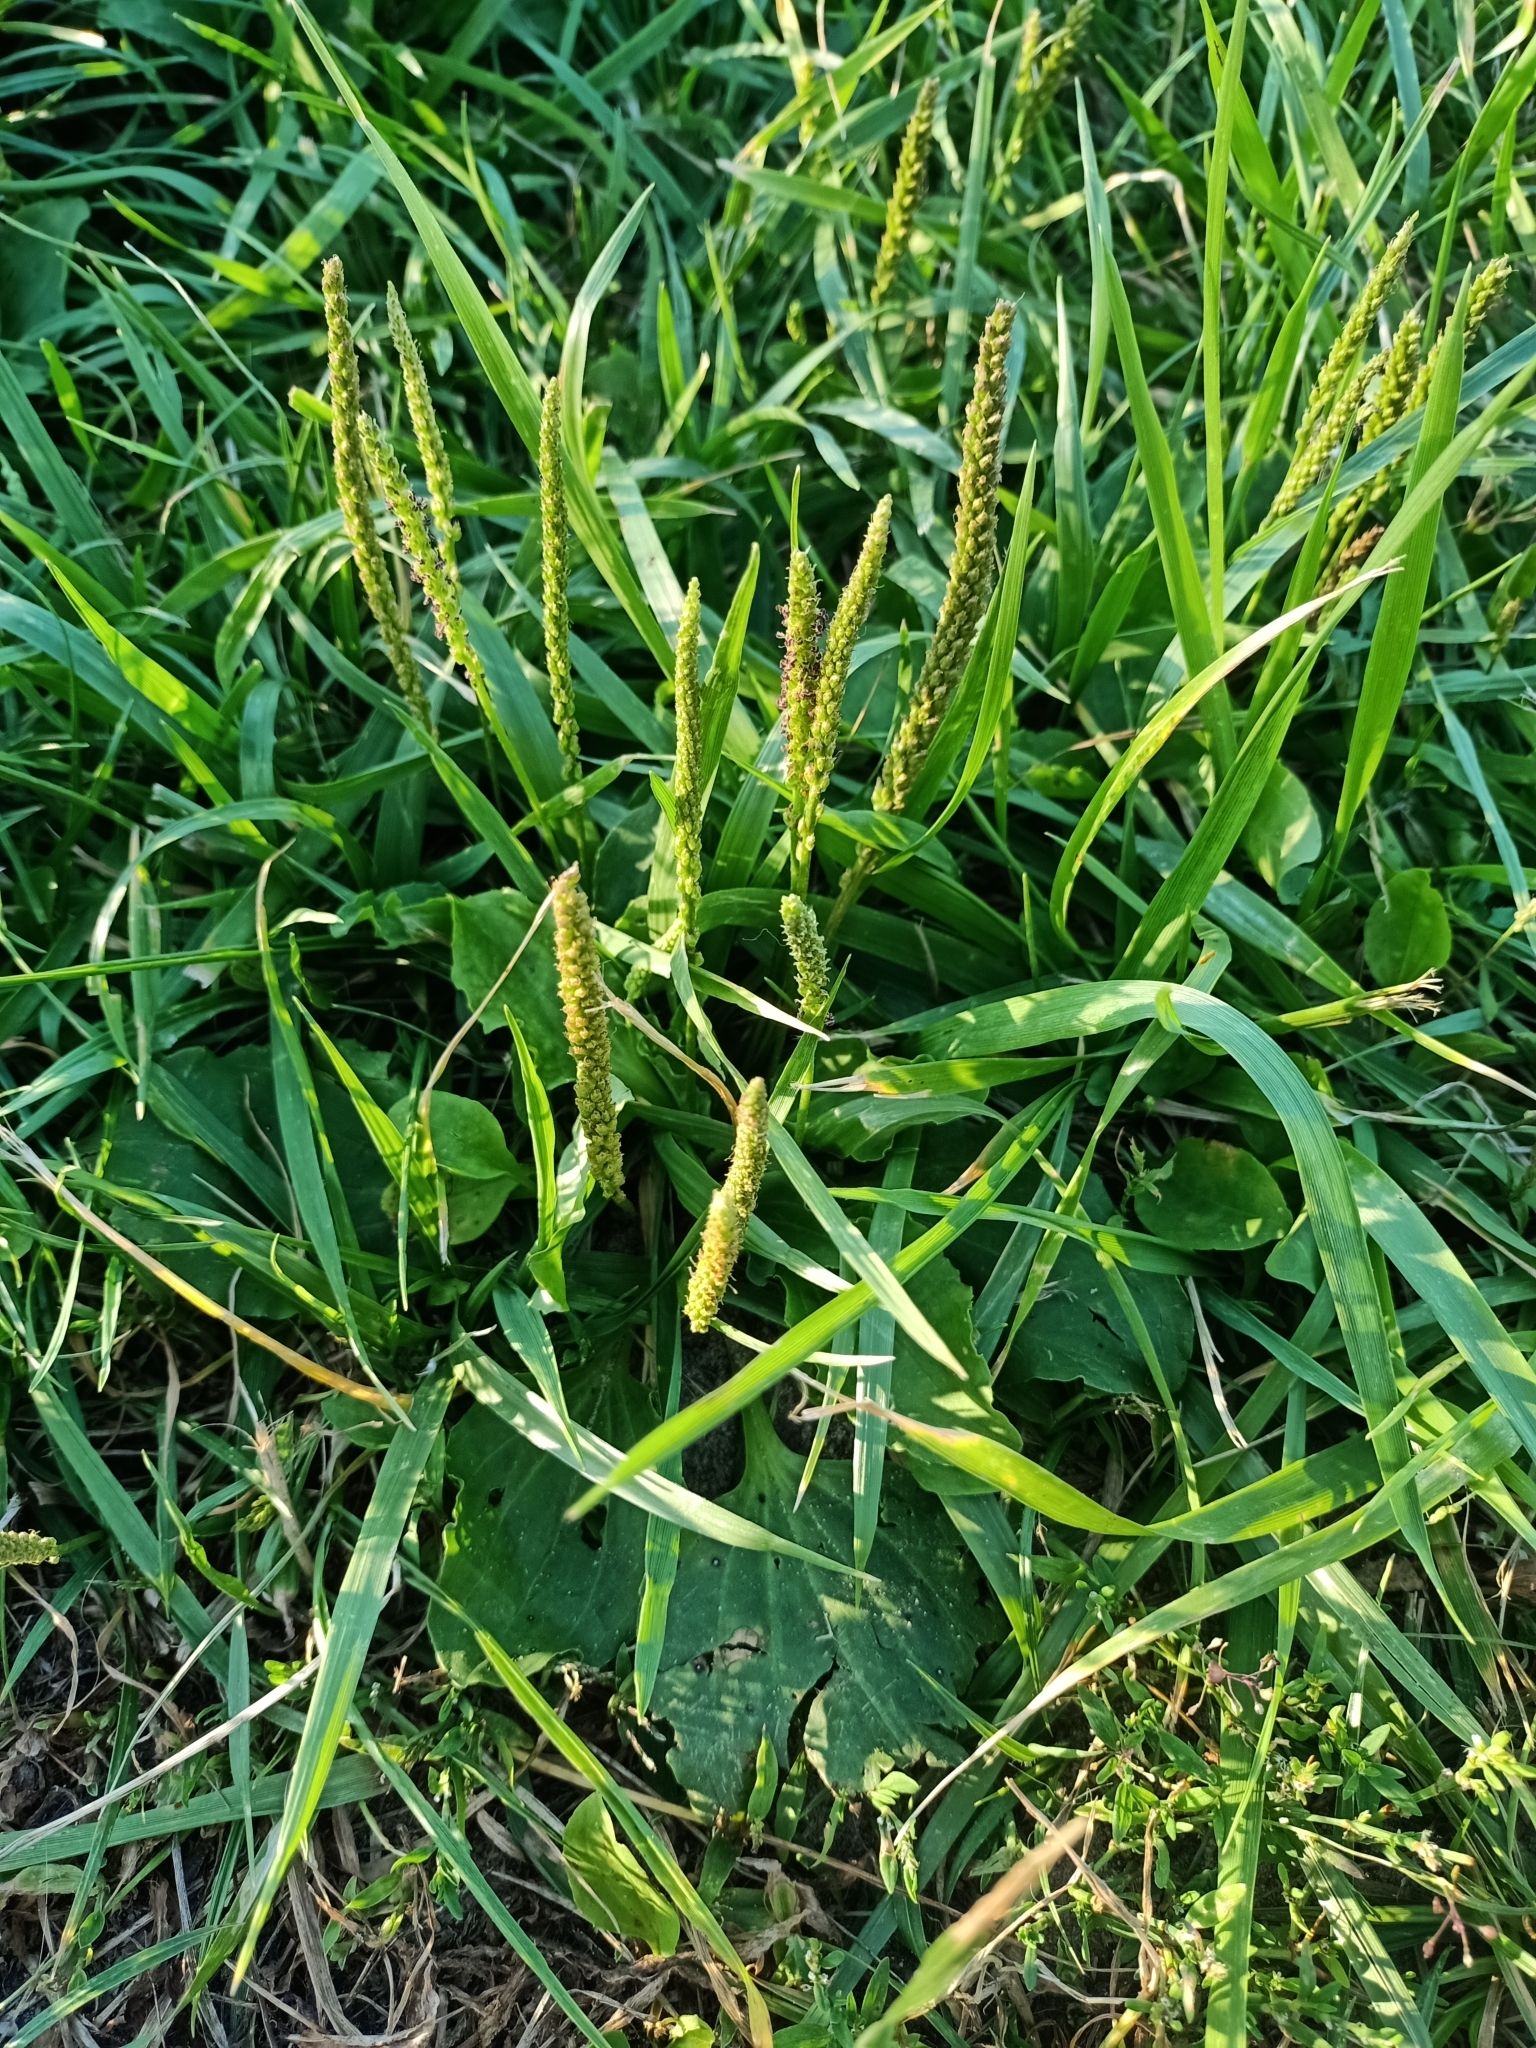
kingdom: Plantae
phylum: Tracheophyta
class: Magnoliopsida
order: Lamiales
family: Plantaginaceae
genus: Plantago
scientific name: Plantago major
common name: Common plantain
